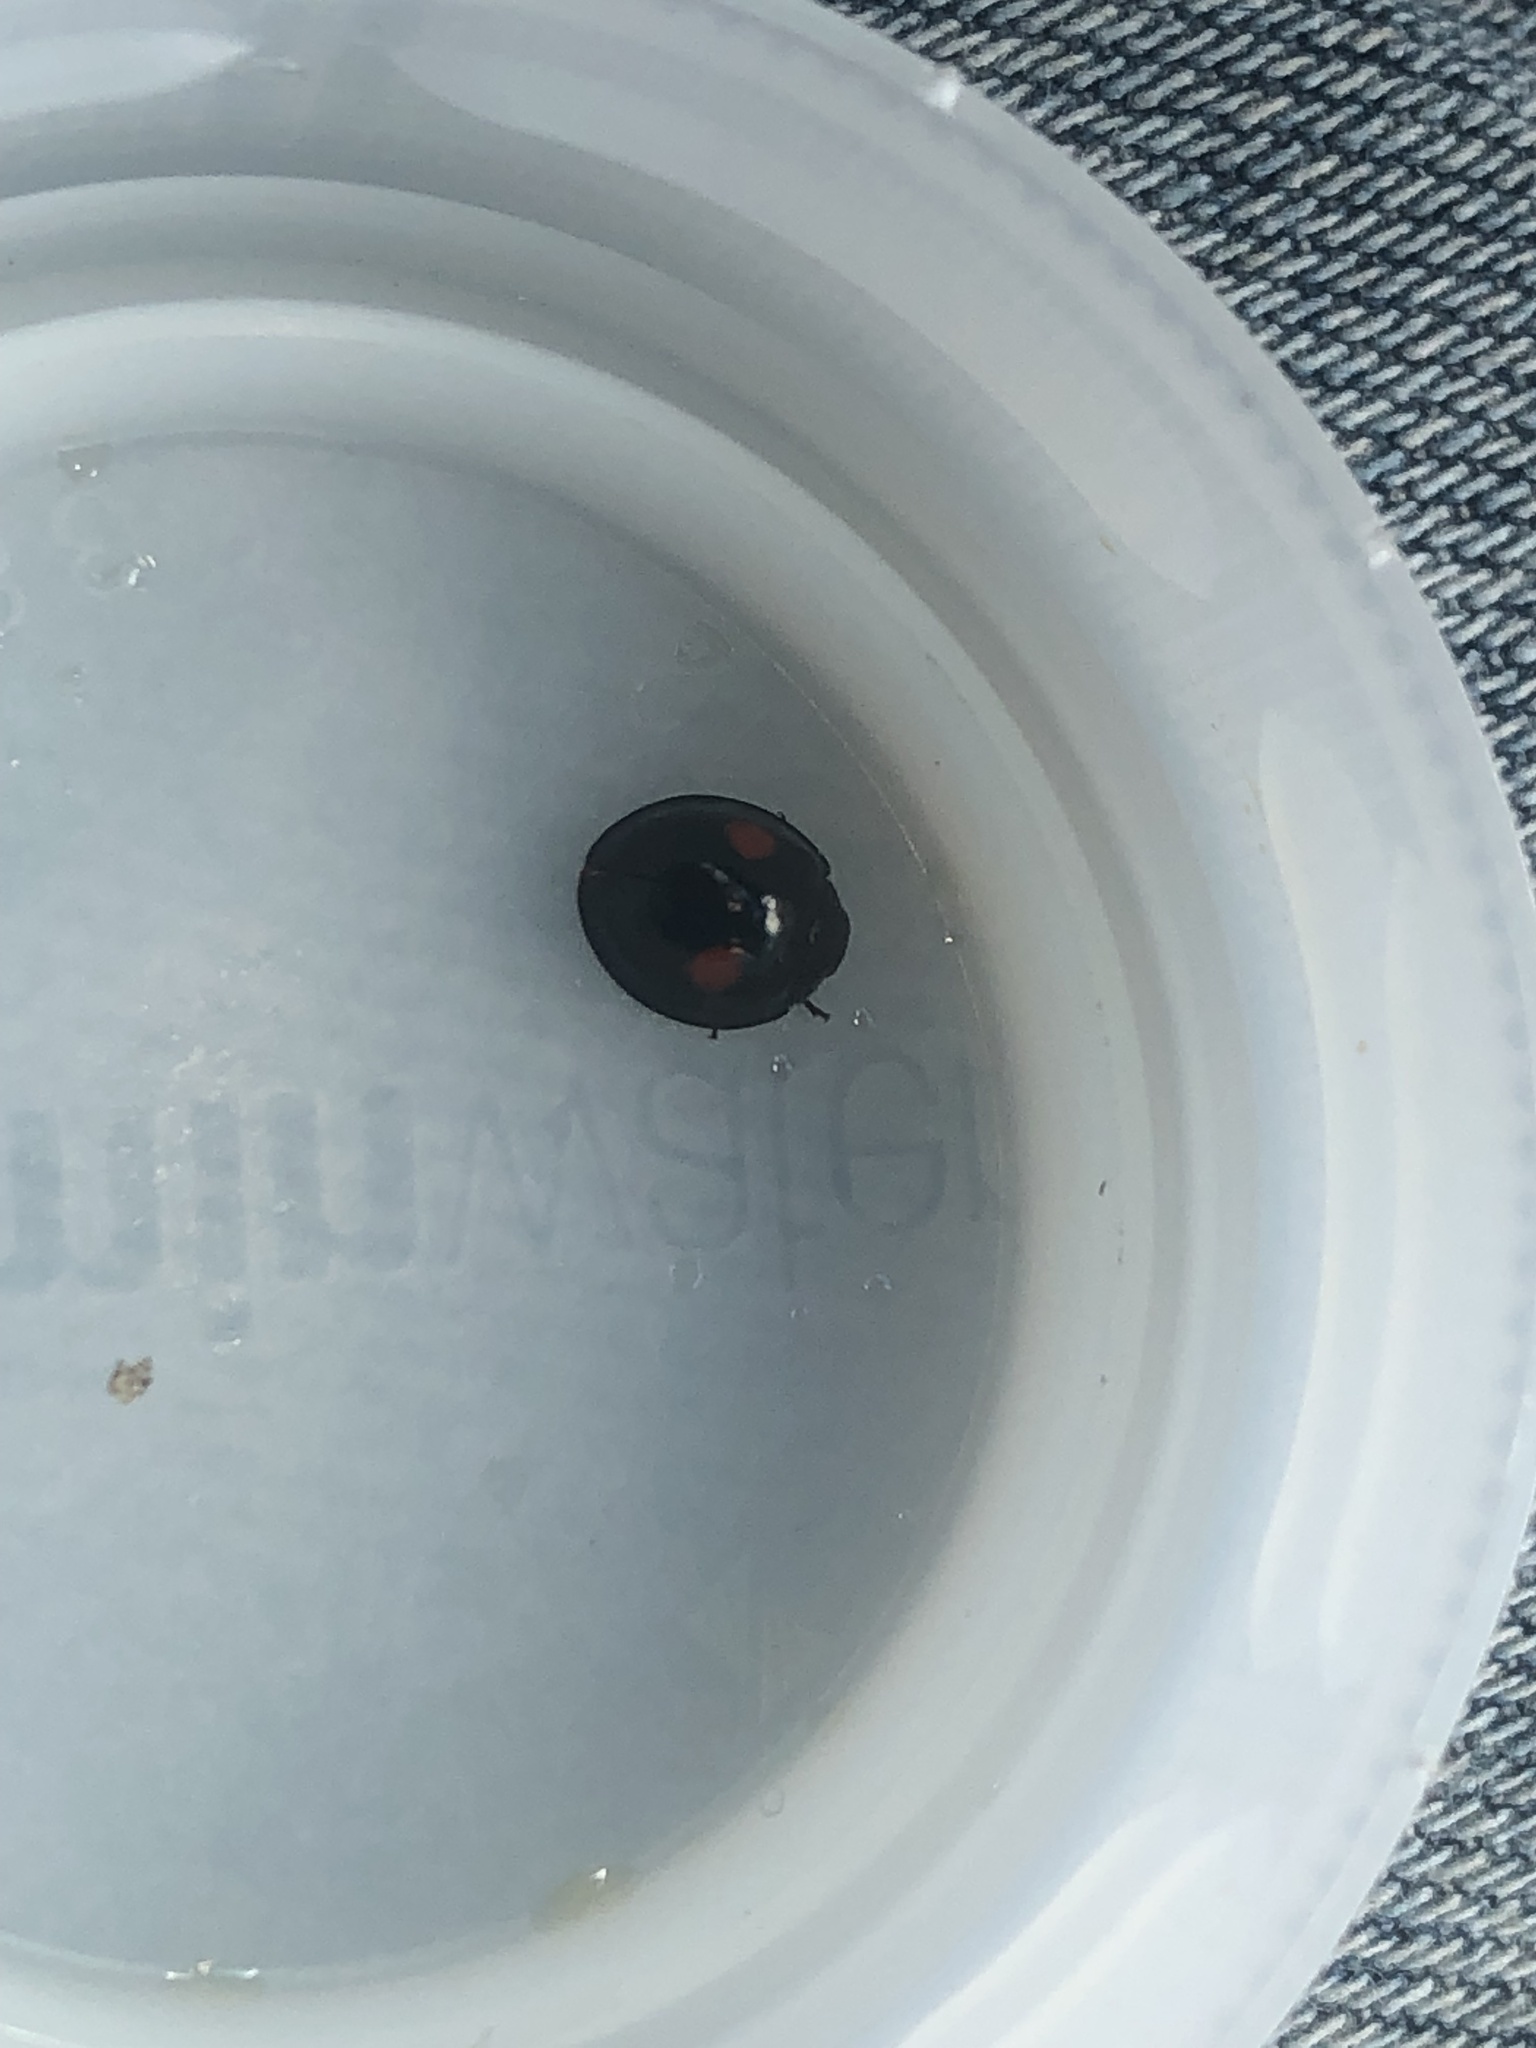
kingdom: Animalia
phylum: Arthropoda
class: Insecta
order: Coleoptera
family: Coccinellidae
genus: Chilocorus
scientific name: Chilocorus stigma
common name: Twicestabbed lady beetle
